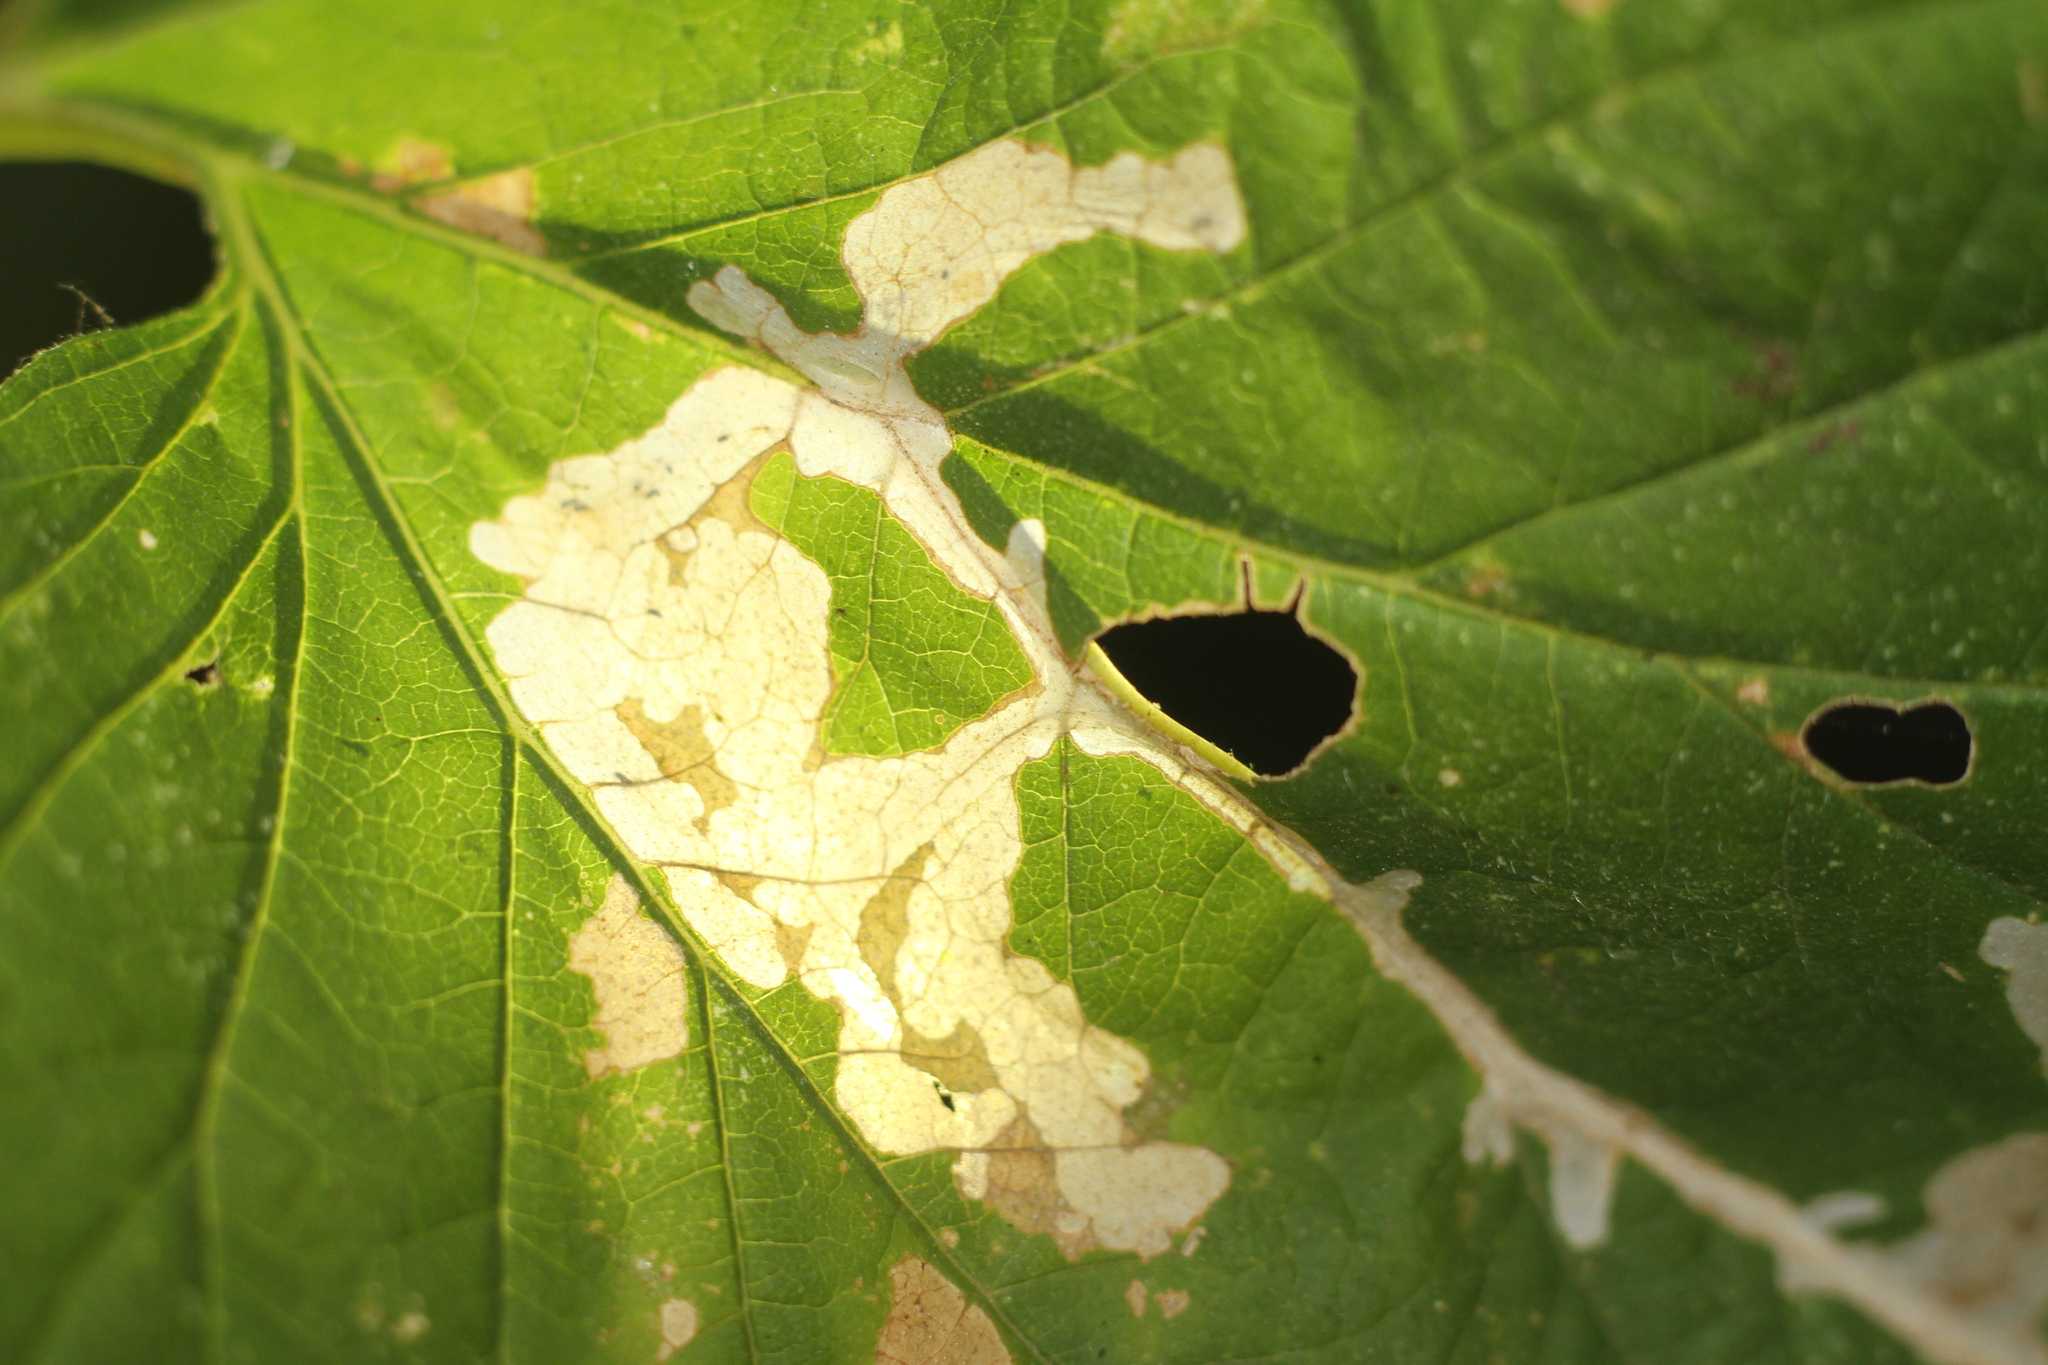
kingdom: Animalia
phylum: Arthropoda
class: Insecta
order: Lepidoptera
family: Cosmopterigidae
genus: Cosmopterix
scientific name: Cosmopterix zieglerella
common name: Hedge cosmet
